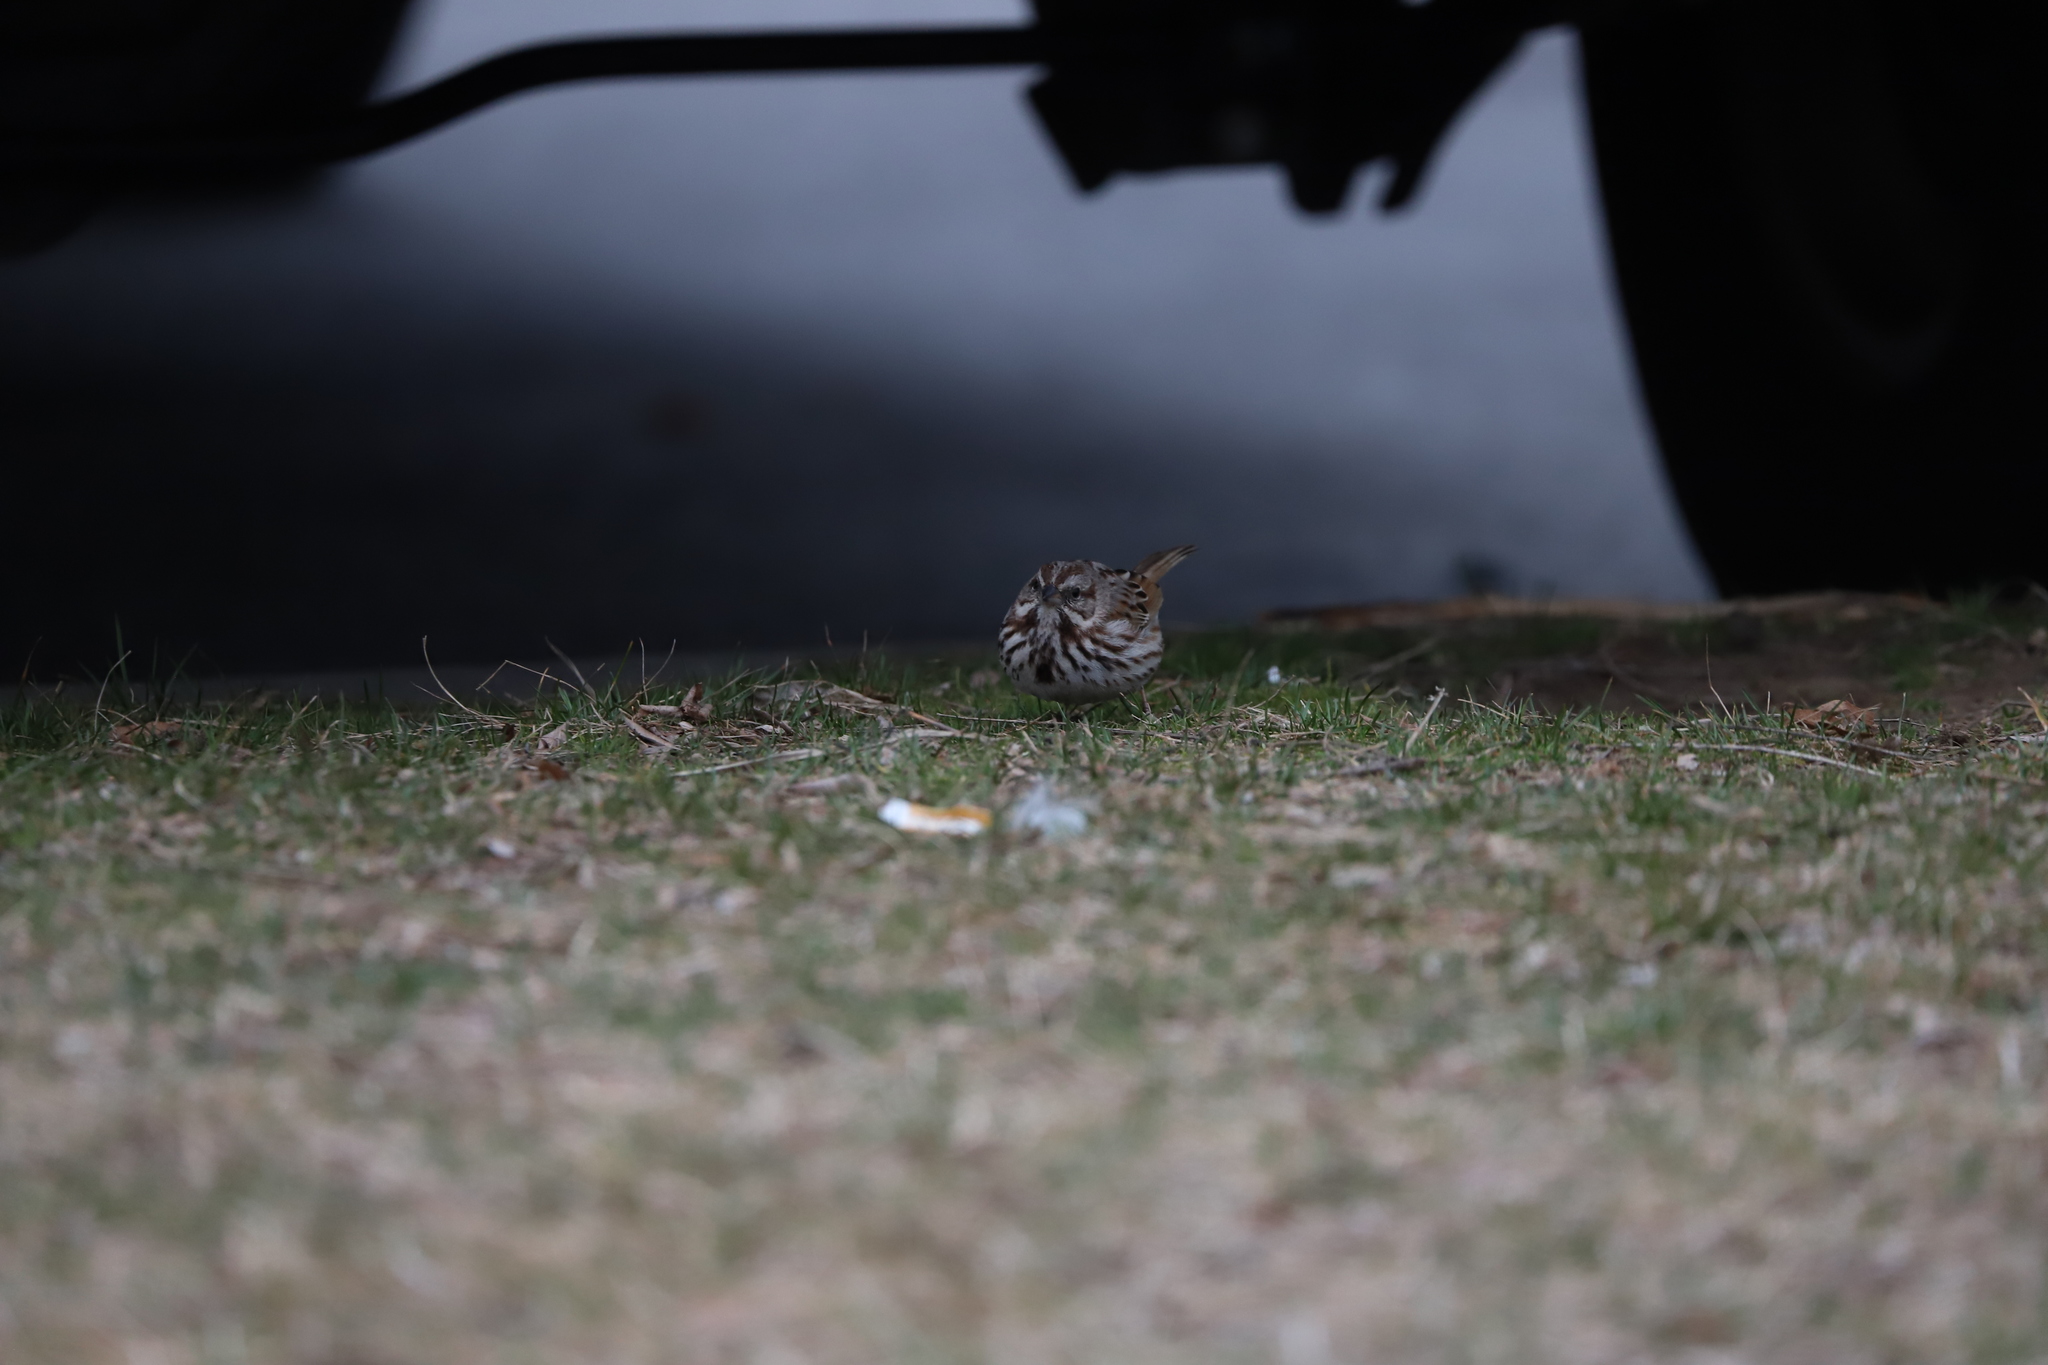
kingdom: Animalia
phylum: Chordata
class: Aves
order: Passeriformes
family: Passerellidae
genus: Melospiza
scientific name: Melospiza melodia
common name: Song sparrow
